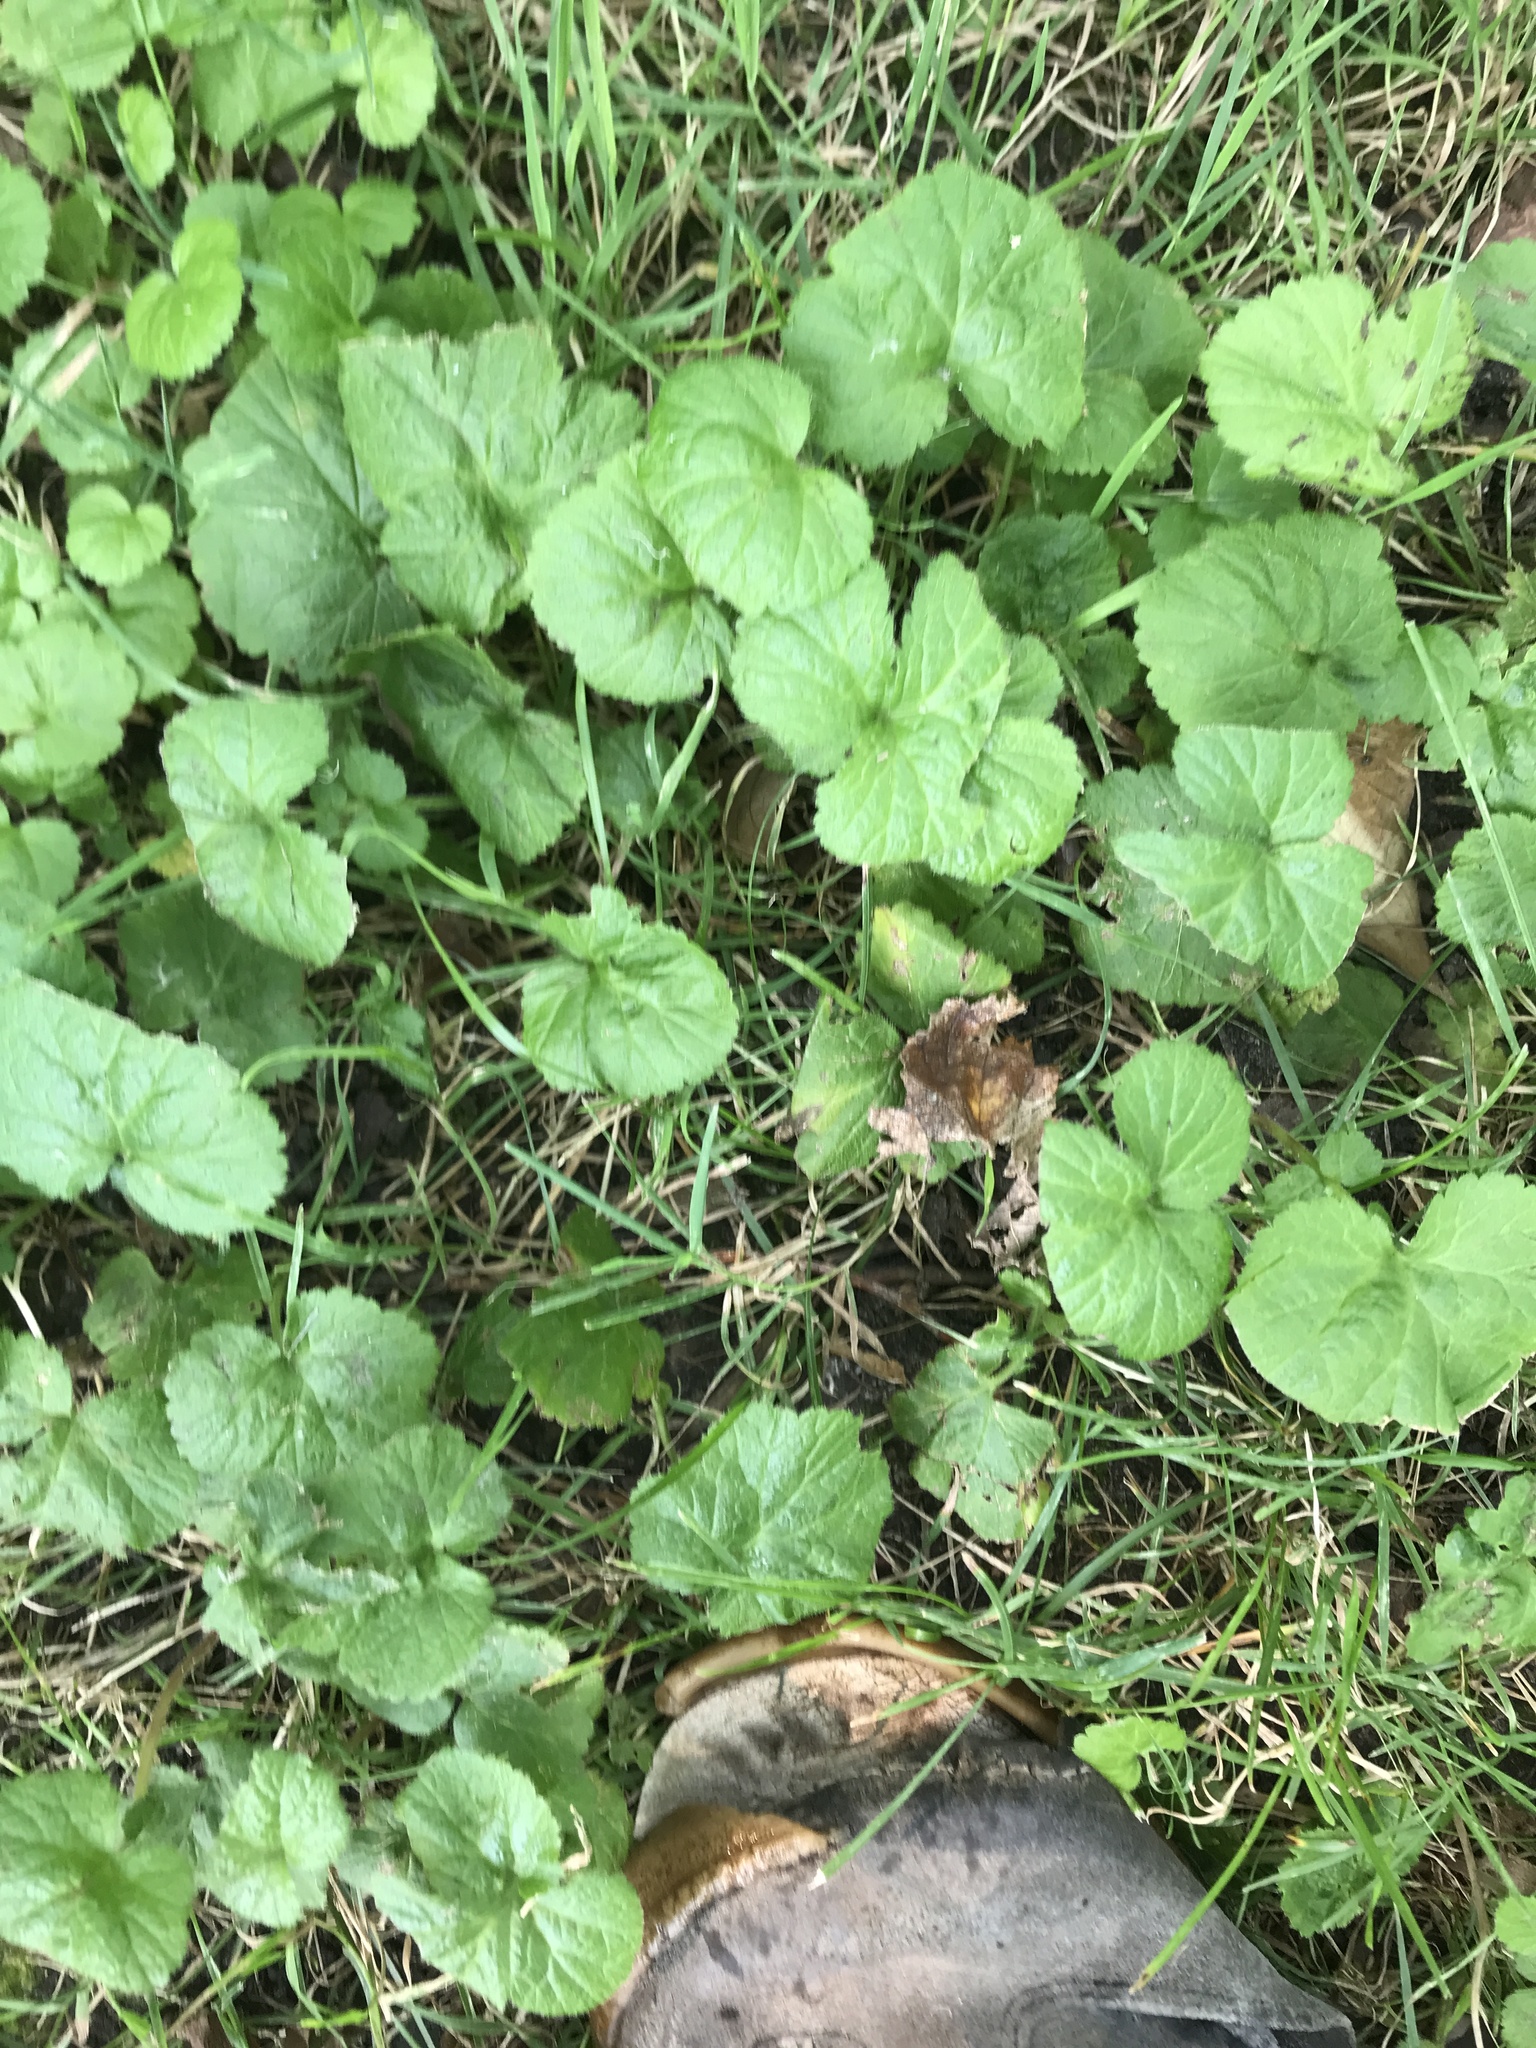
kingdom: Plantae
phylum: Tracheophyta
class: Magnoliopsida
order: Lamiales
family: Lamiaceae
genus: Glechoma
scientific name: Glechoma hederacea
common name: Ground ivy
